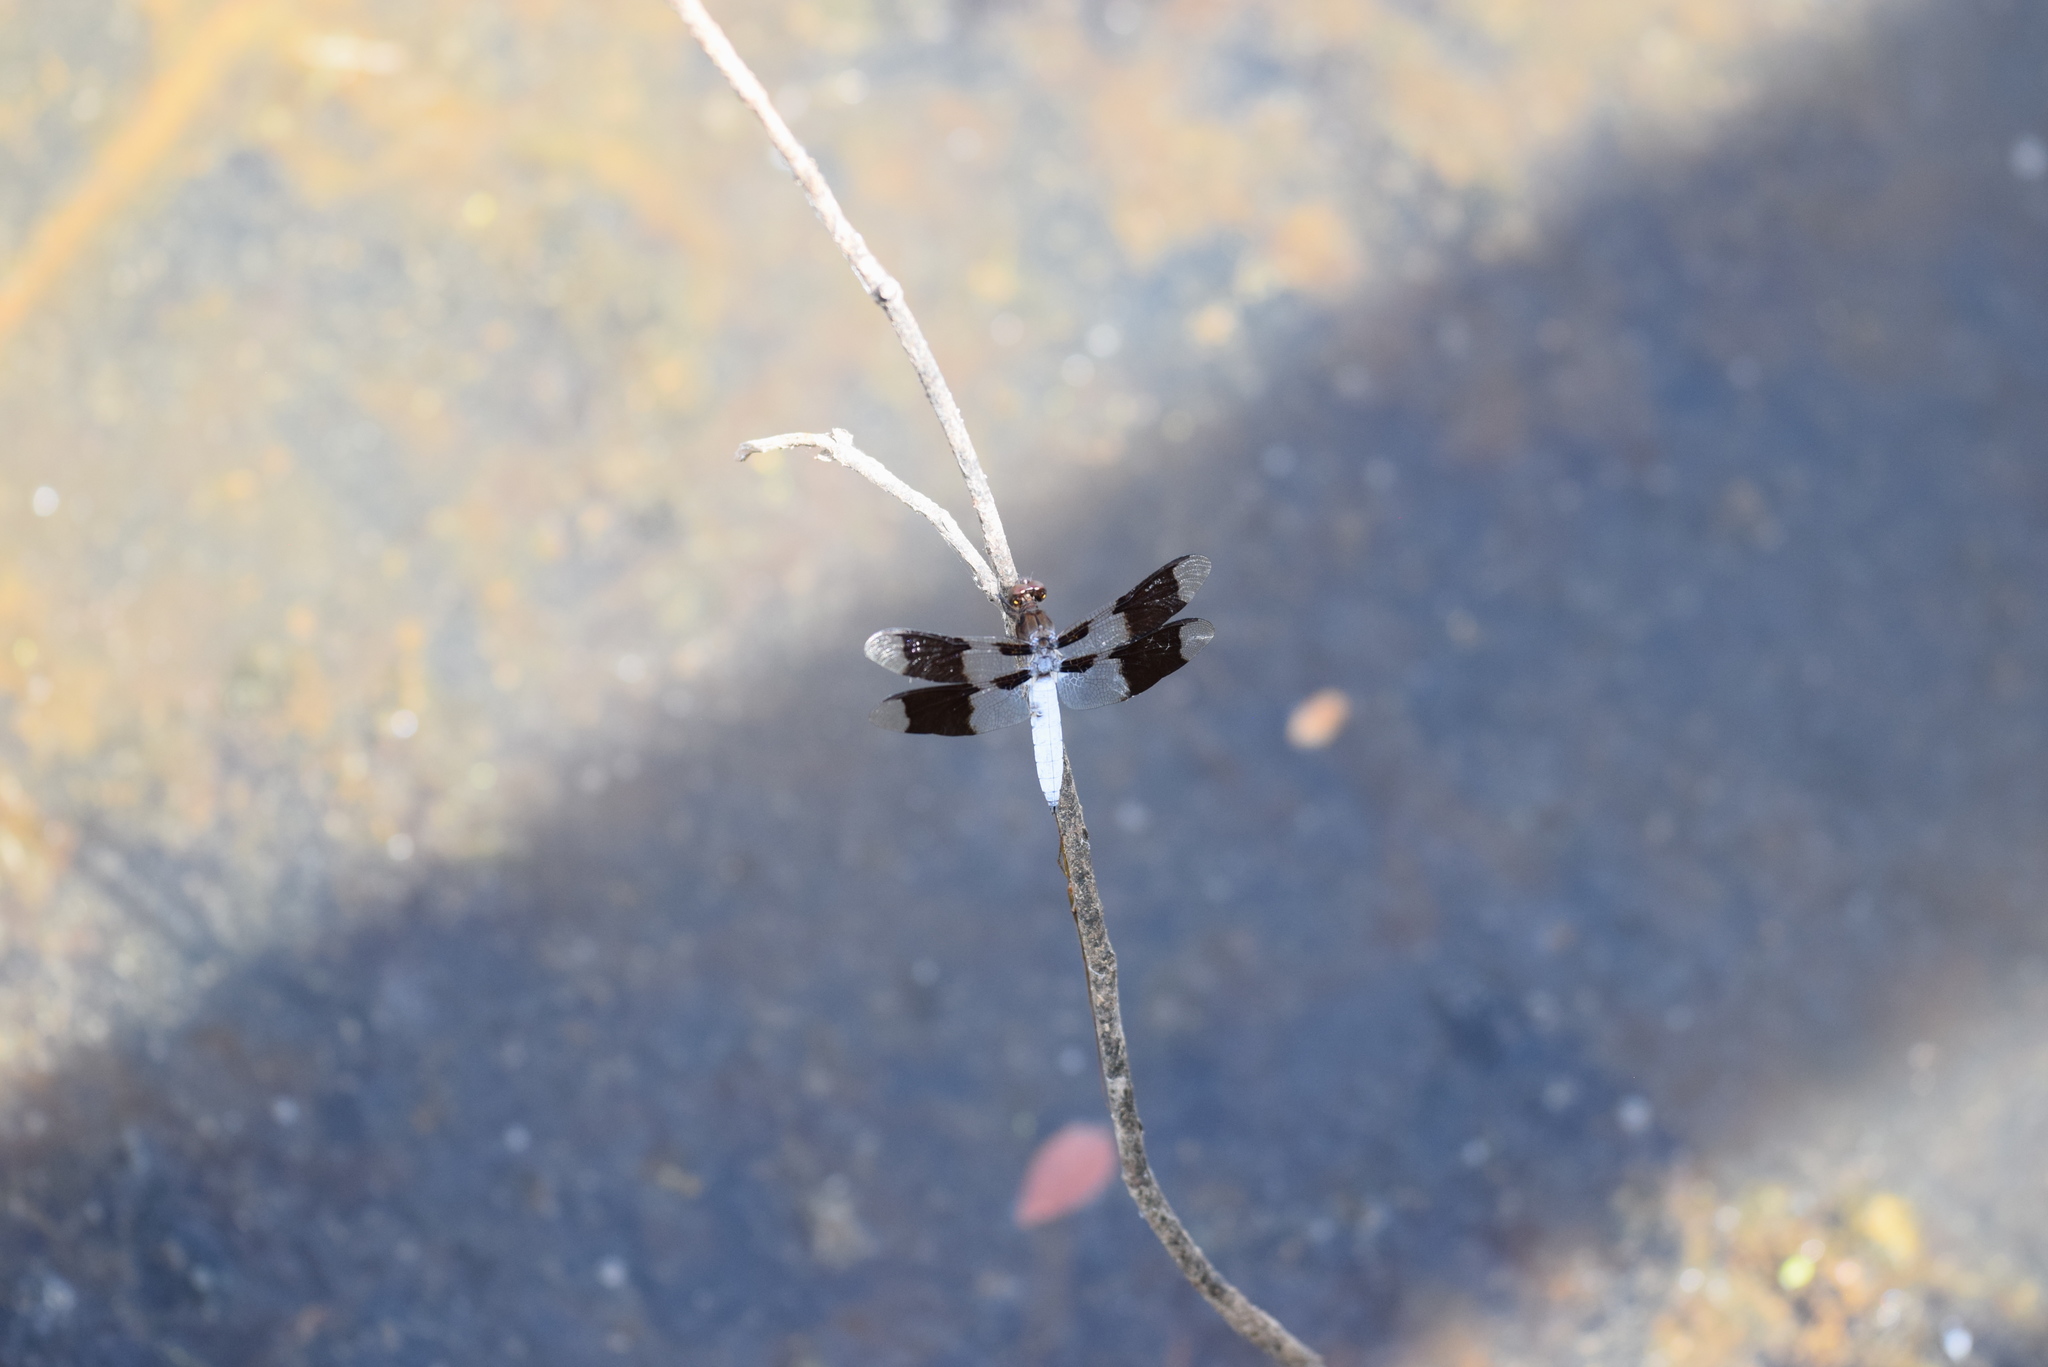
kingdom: Animalia
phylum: Arthropoda
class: Insecta
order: Odonata
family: Libellulidae
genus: Plathemis
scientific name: Plathemis lydia
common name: Common whitetail
